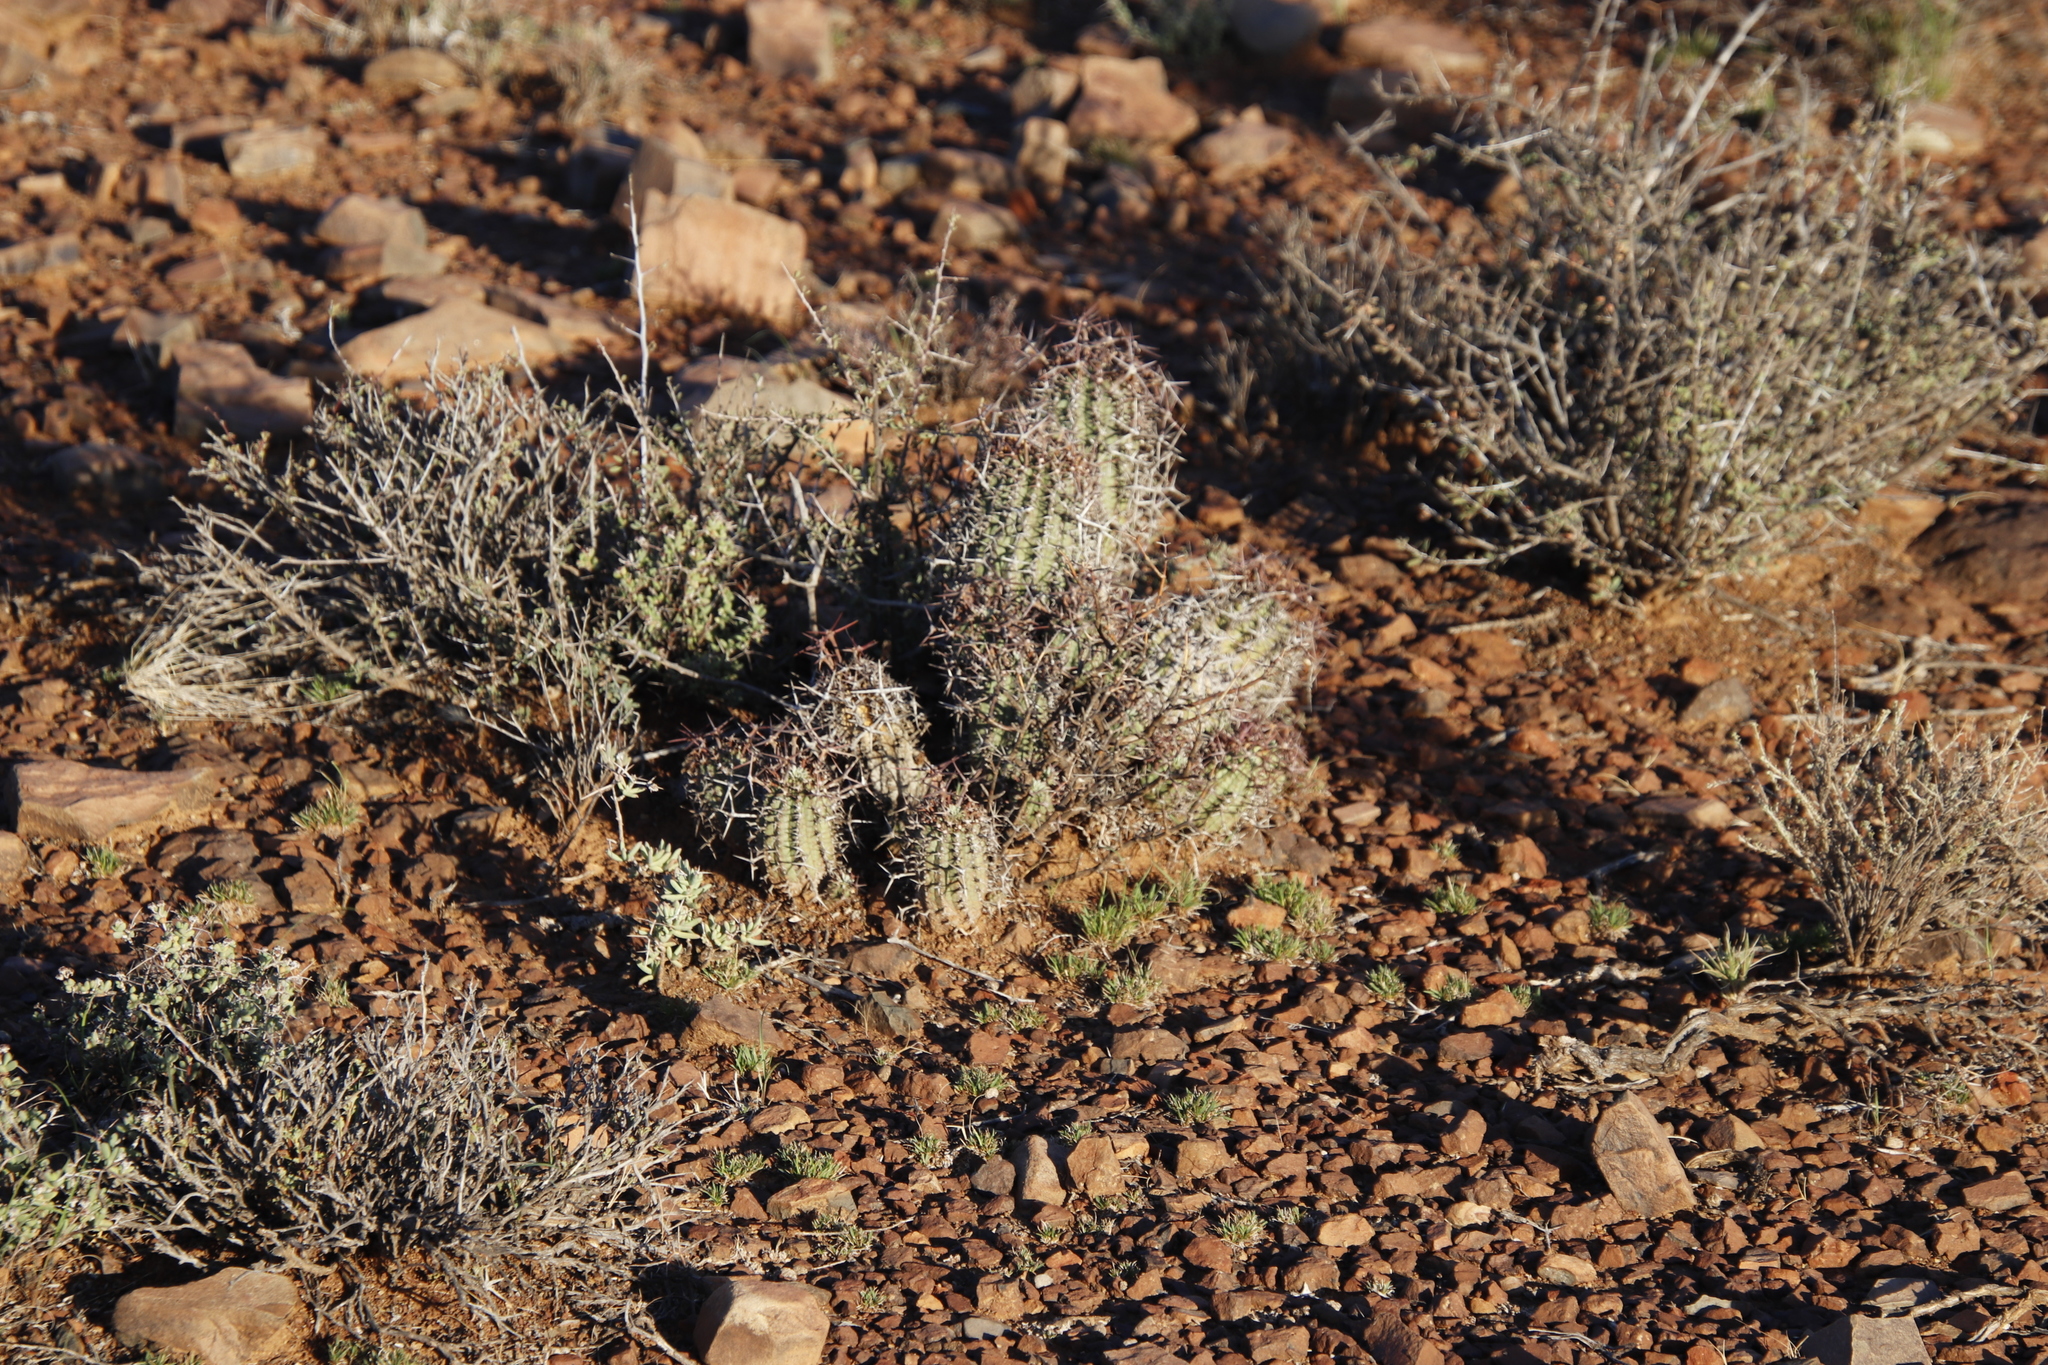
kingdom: Plantae
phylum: Tracheophyta
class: Magnoliopsida
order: Malpighiales
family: Euphorbiaceae
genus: Euphorbia
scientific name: Euphorbia stellispina
